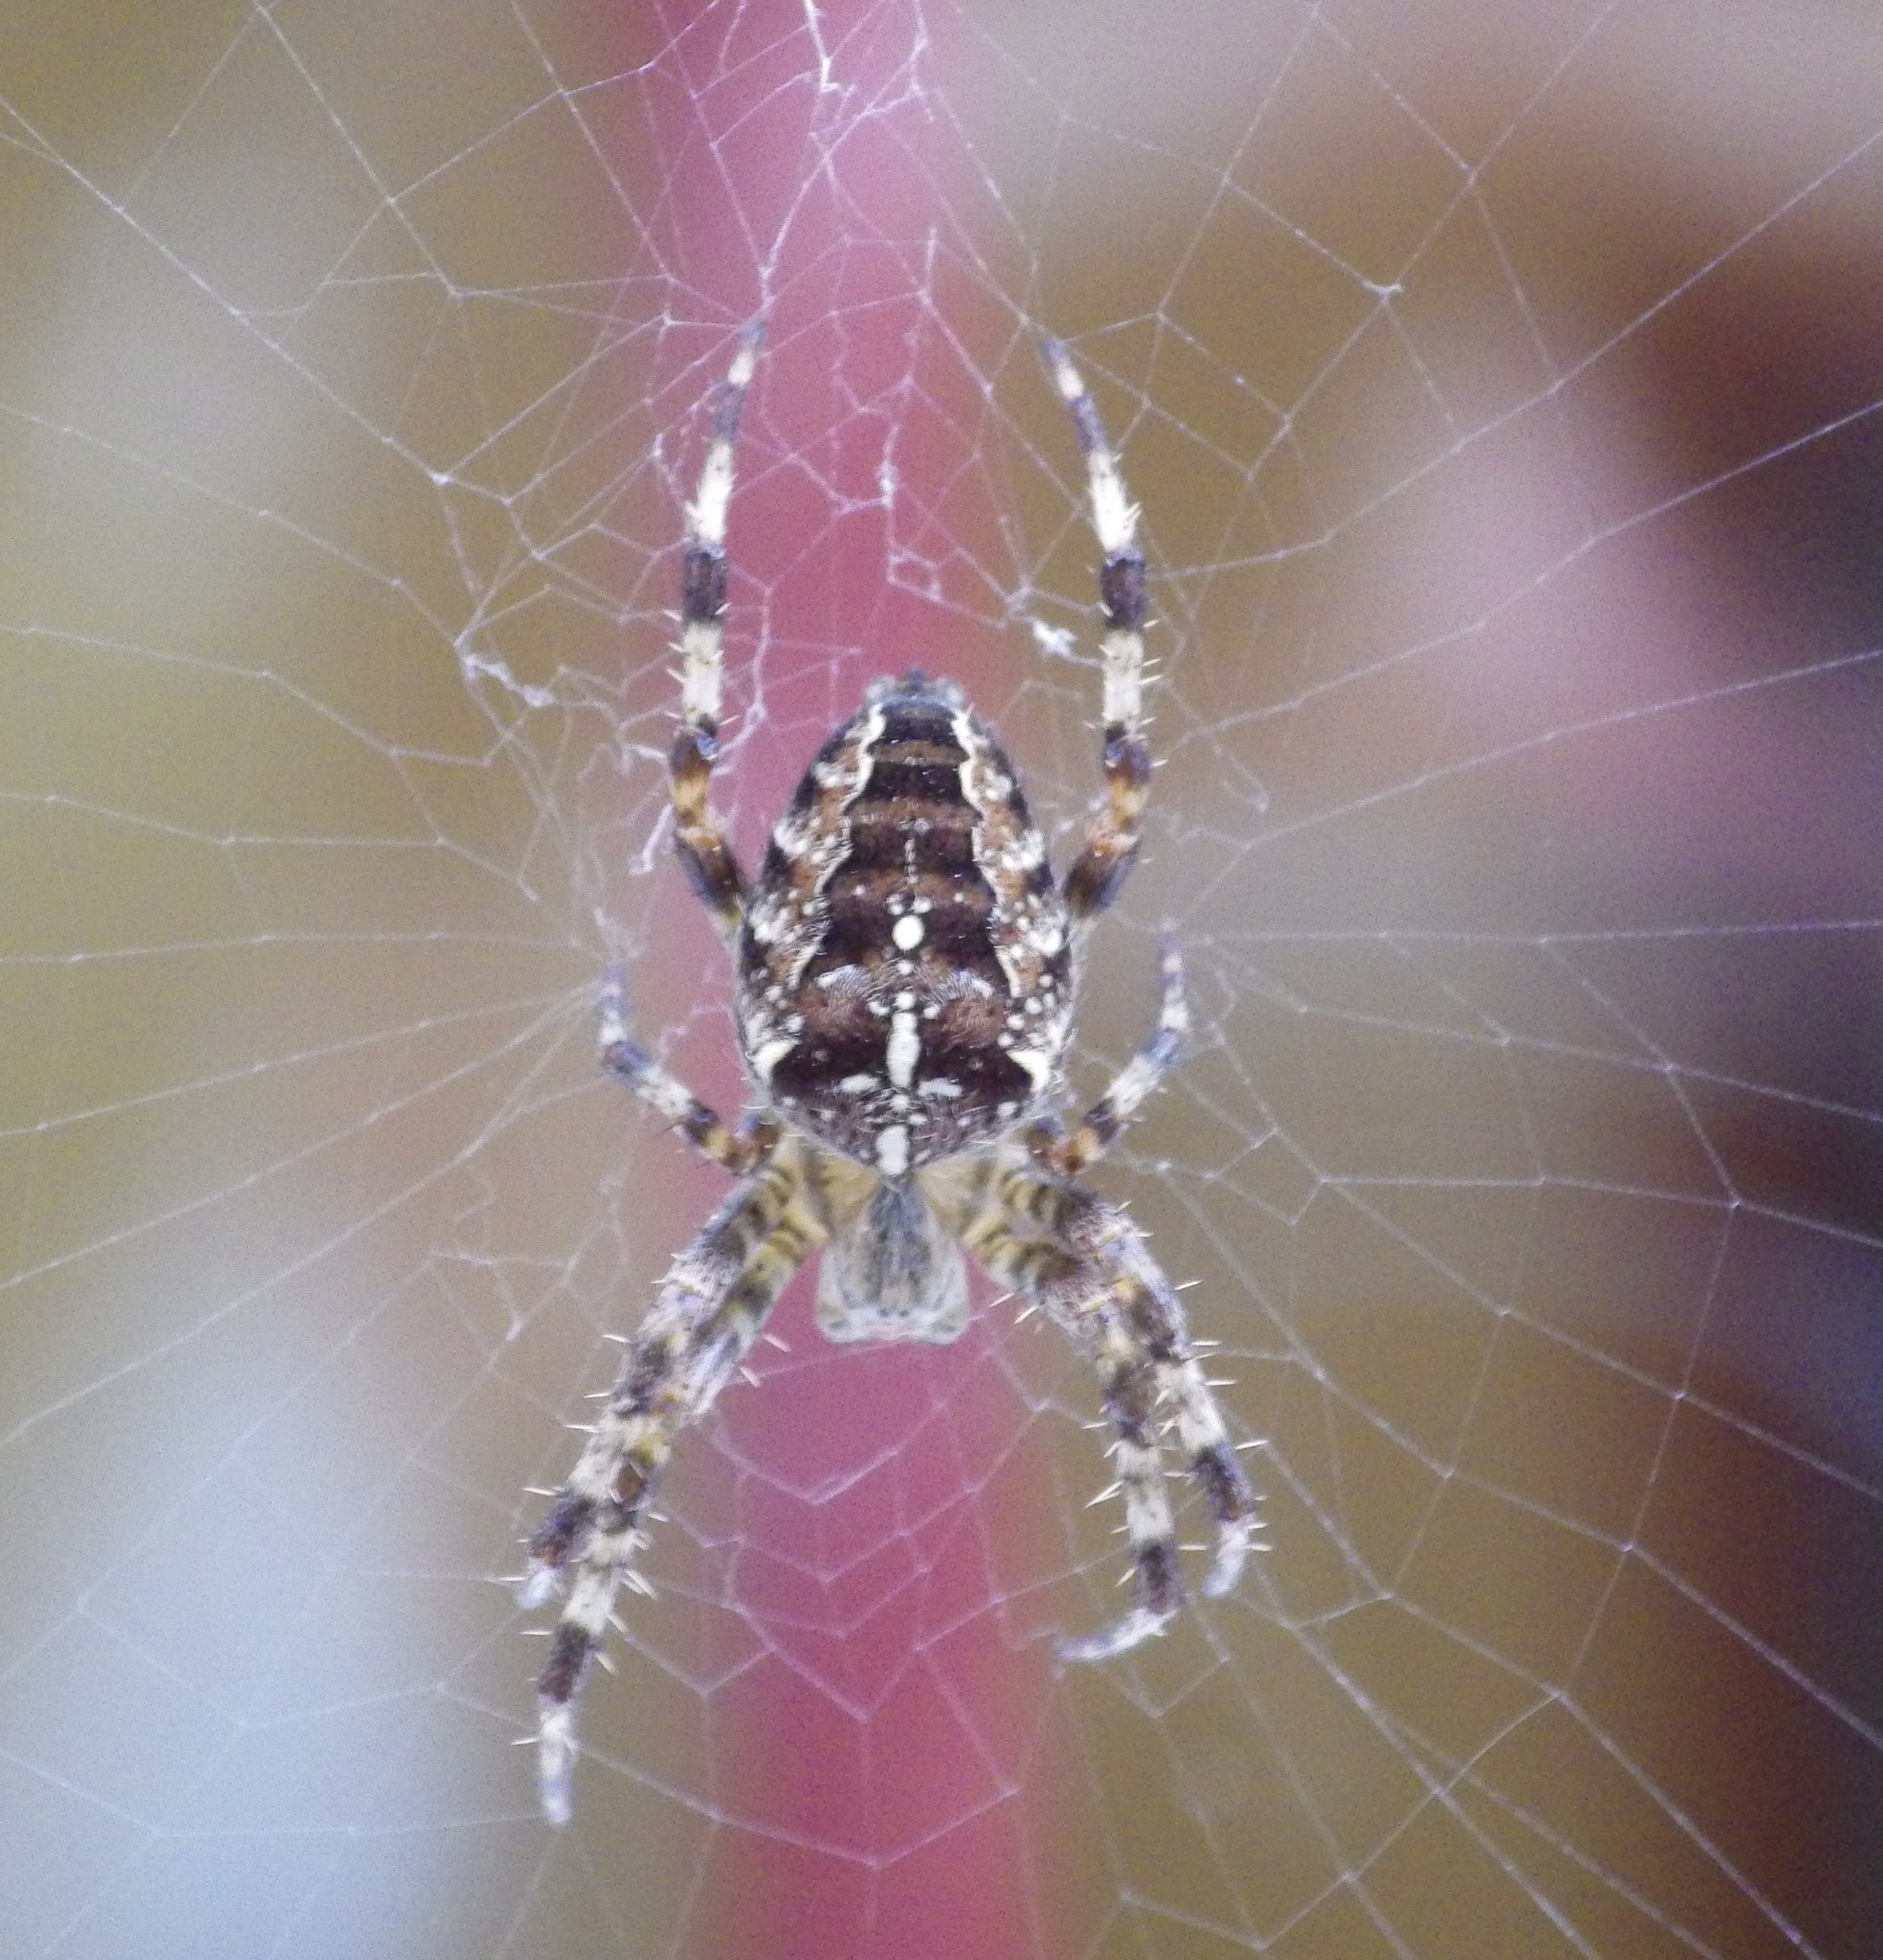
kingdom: Animalia
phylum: Arthropoda
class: Arachnida
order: Araneae
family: Araneidae
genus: Araneus
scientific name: Araneus diadematus
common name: Cross orbweaver
